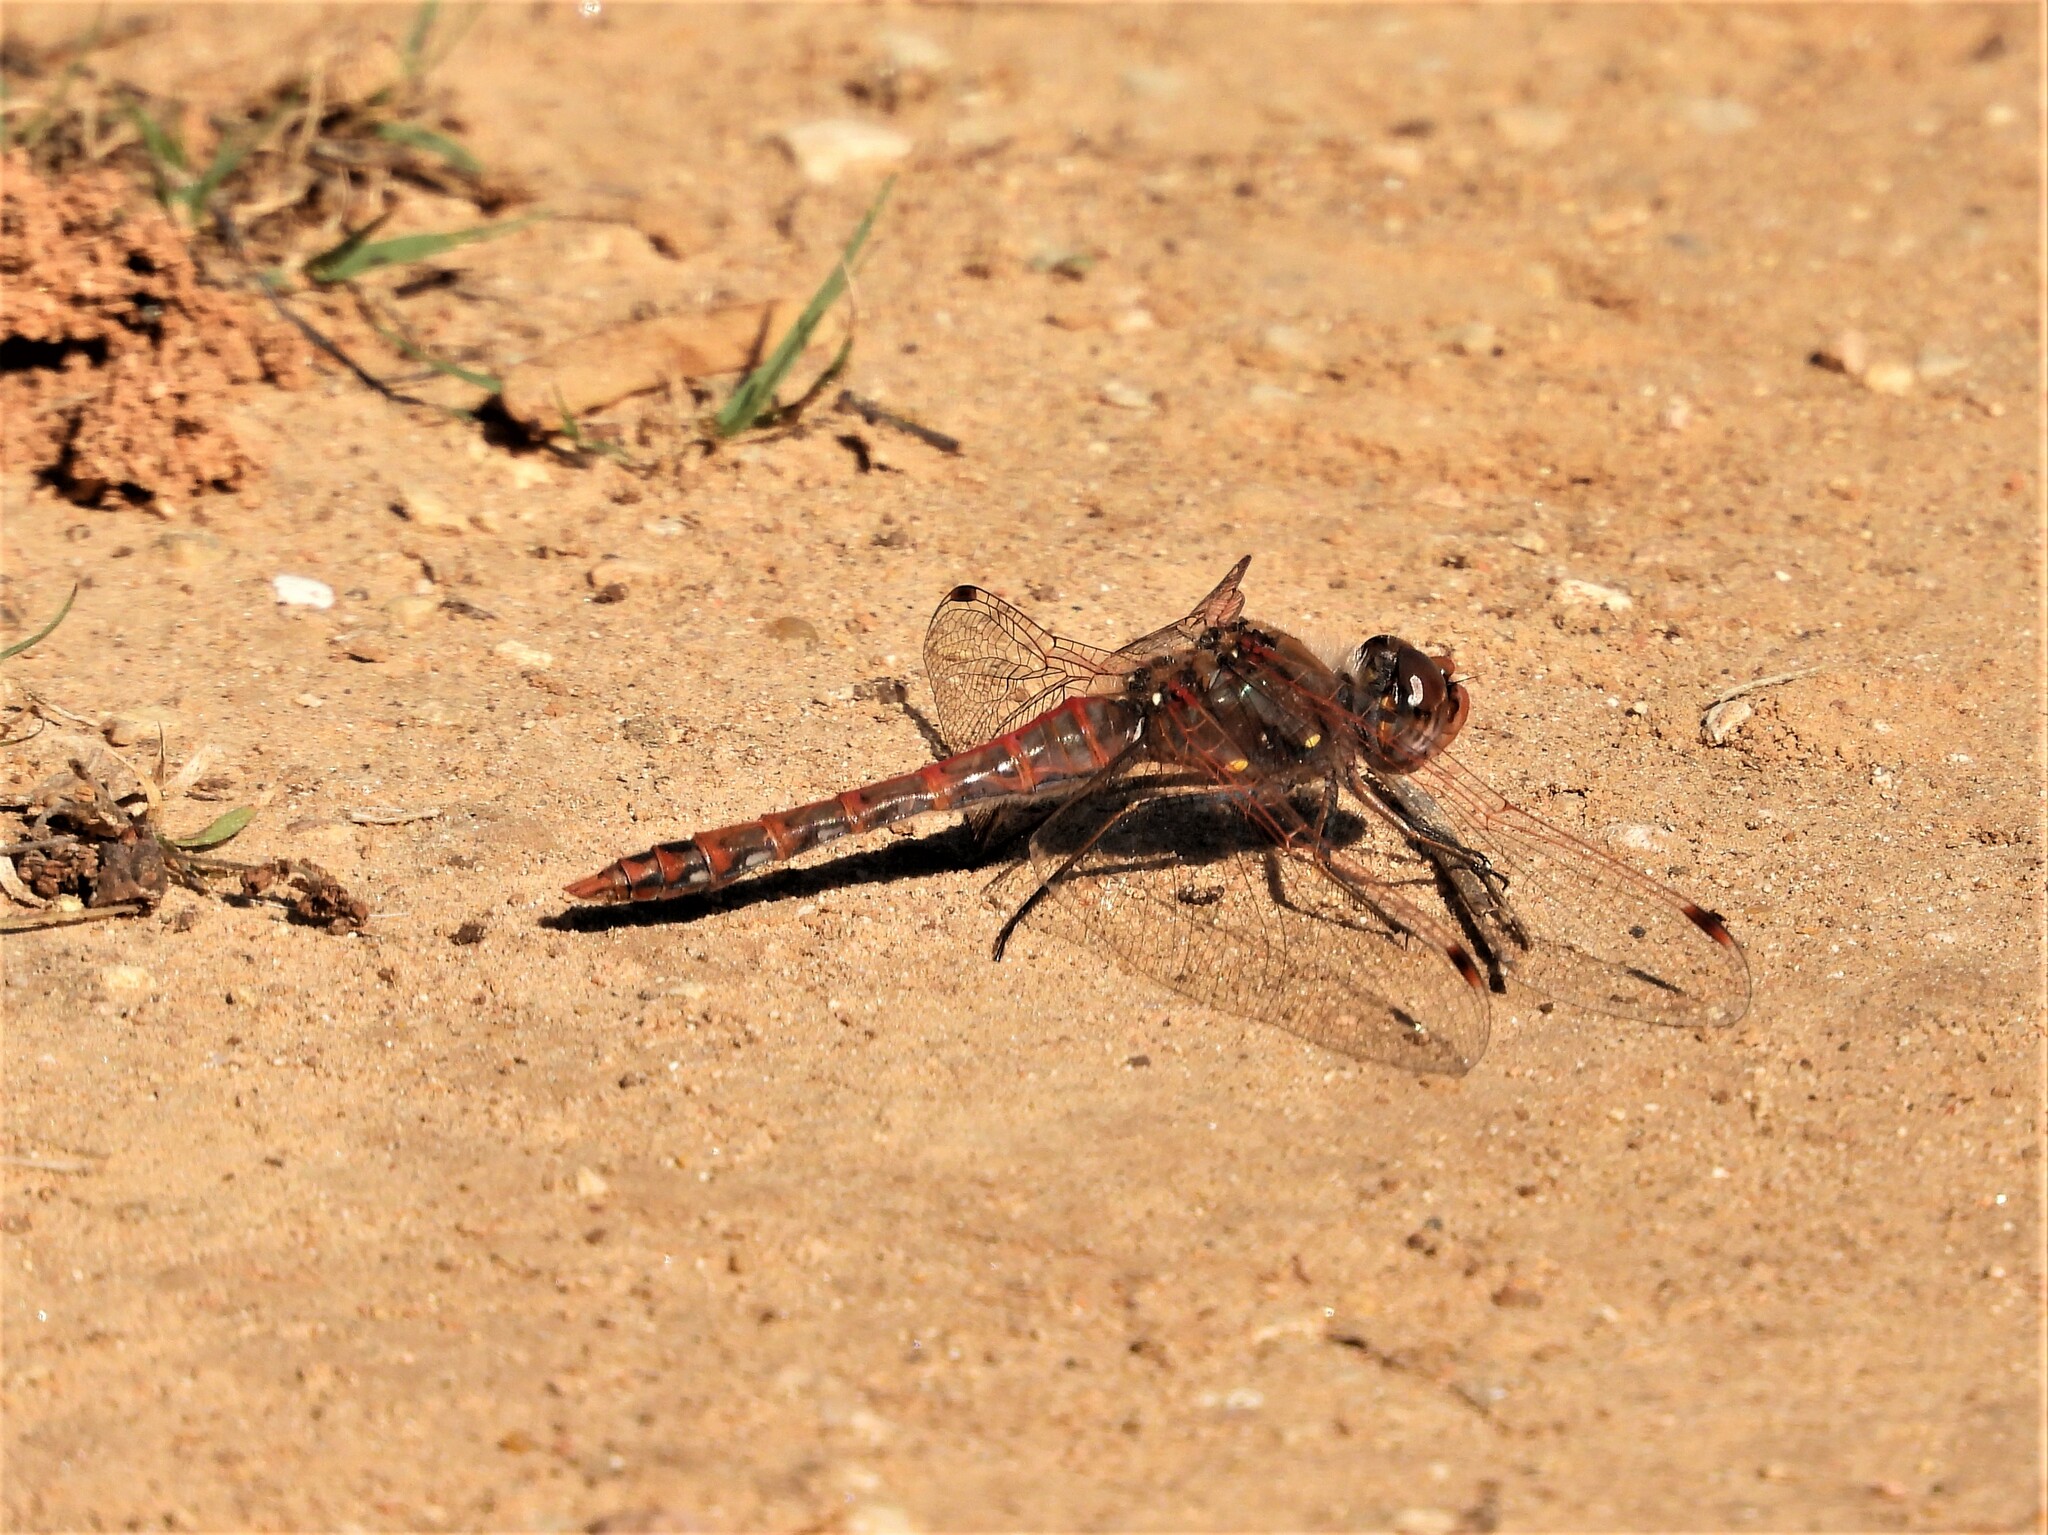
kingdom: Animalia
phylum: Arthropoda
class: Insecta
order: Odonata
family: Libellulidae
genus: Sympetrum
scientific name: Sympetrum corruptum
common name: Variegated meadowhawk
